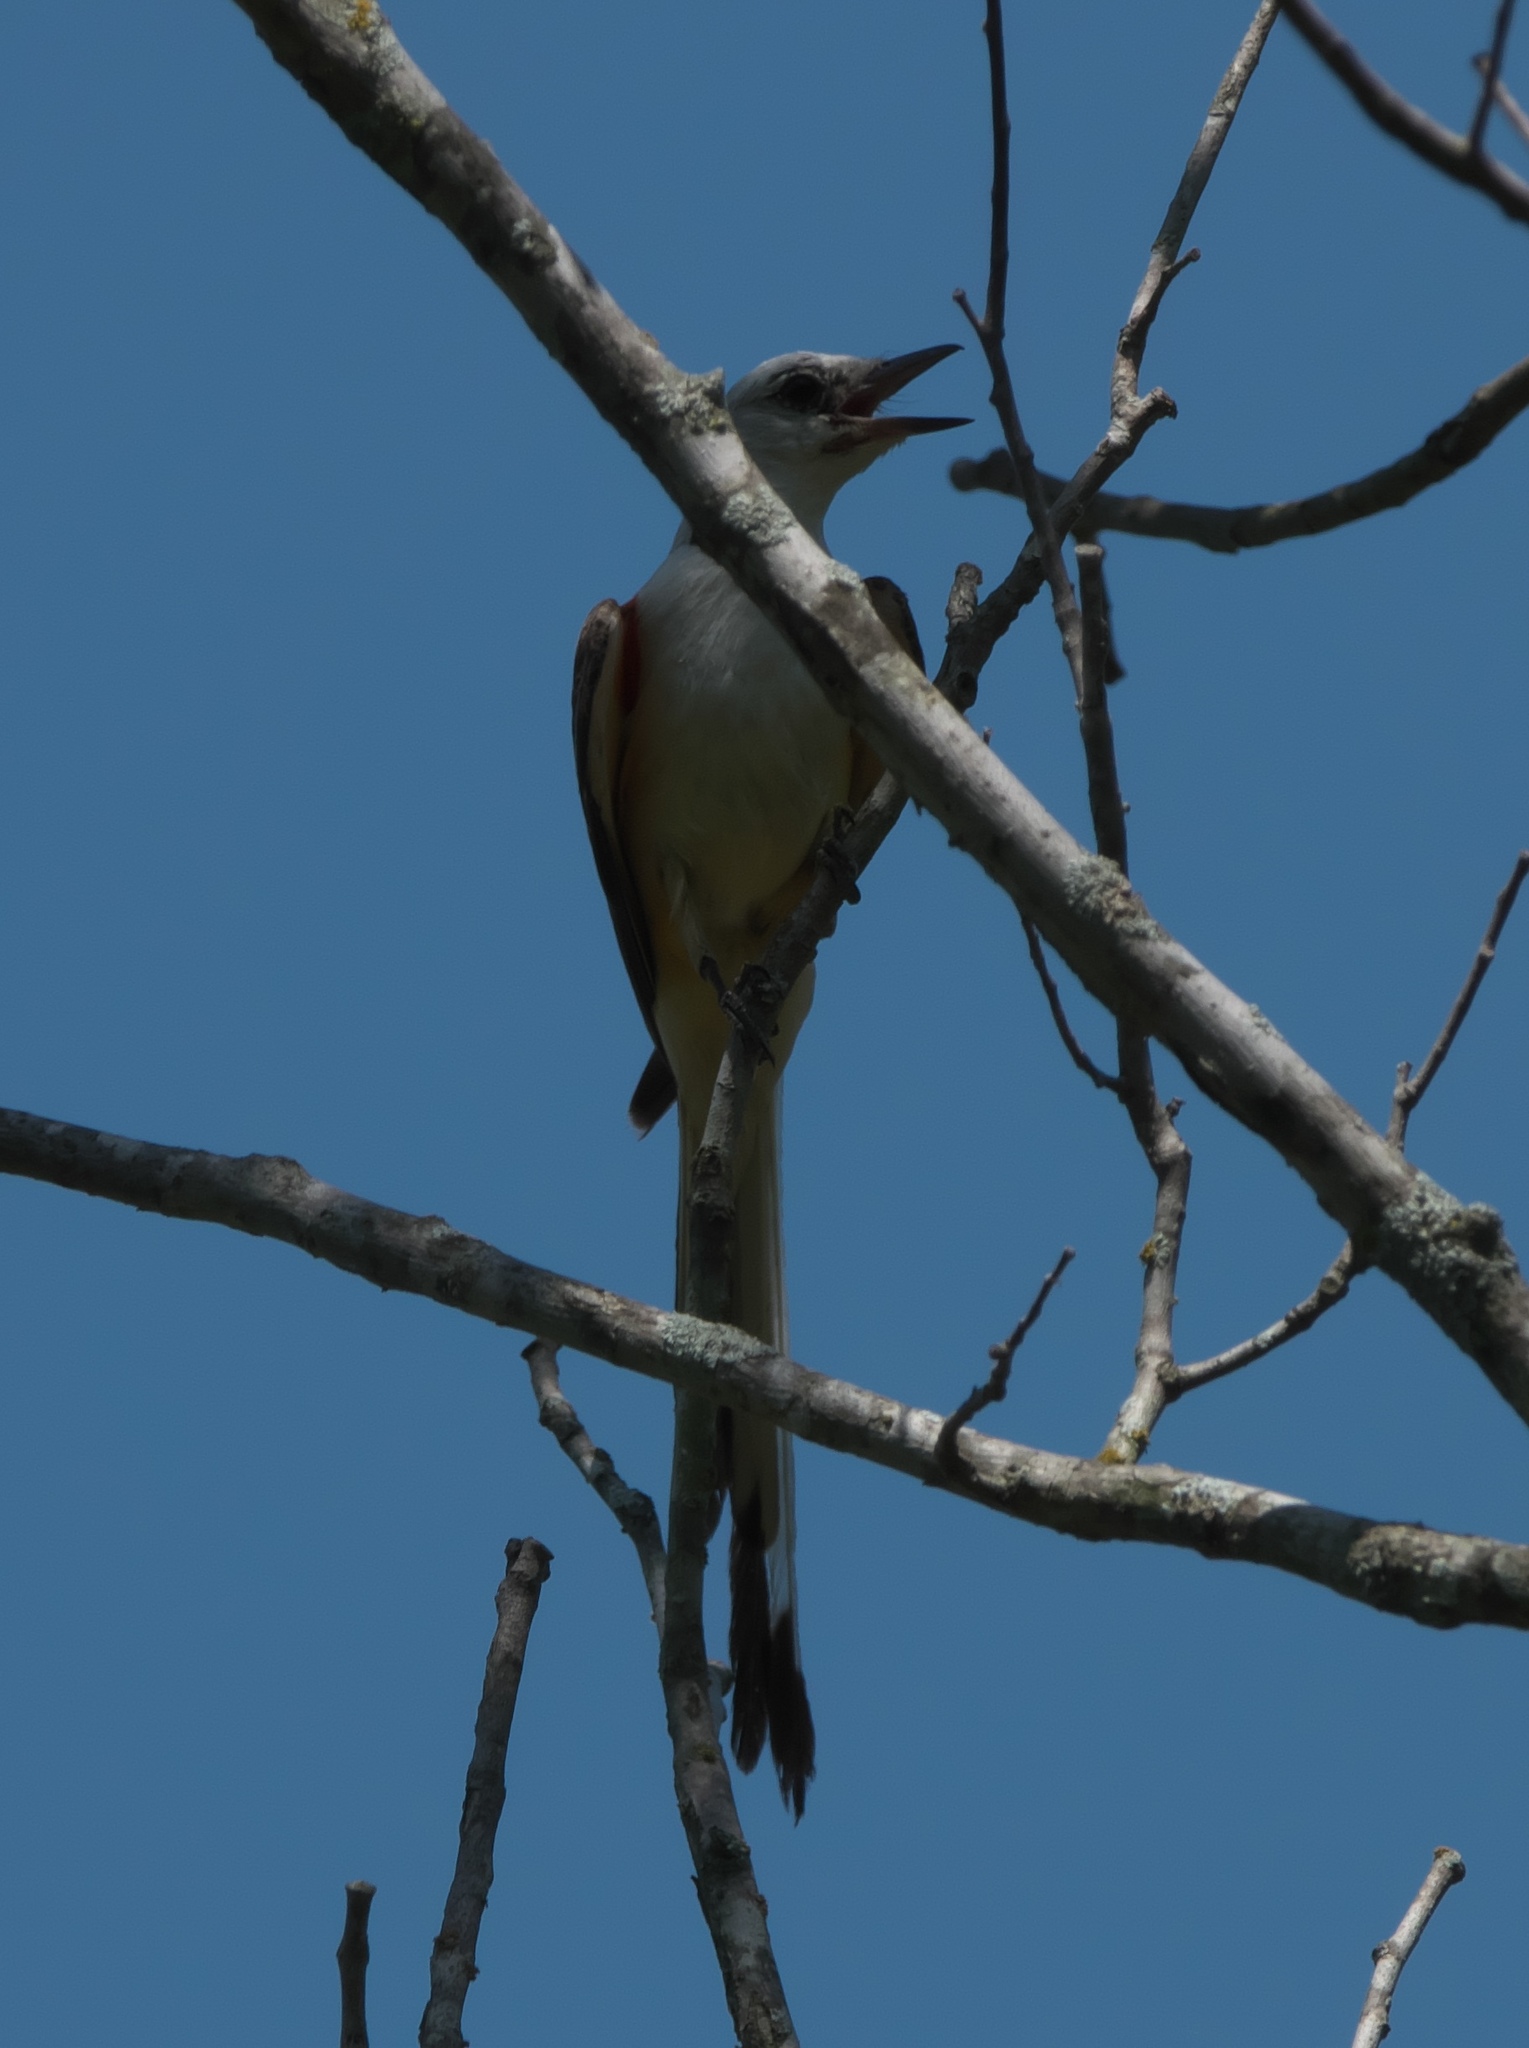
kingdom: Animalia
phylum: Chordata
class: Aves
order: Passeriformes
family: Tyrannidae
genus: Tyrannus
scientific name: Tyrannus forficatus
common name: Scissor-tailed flycatcher
